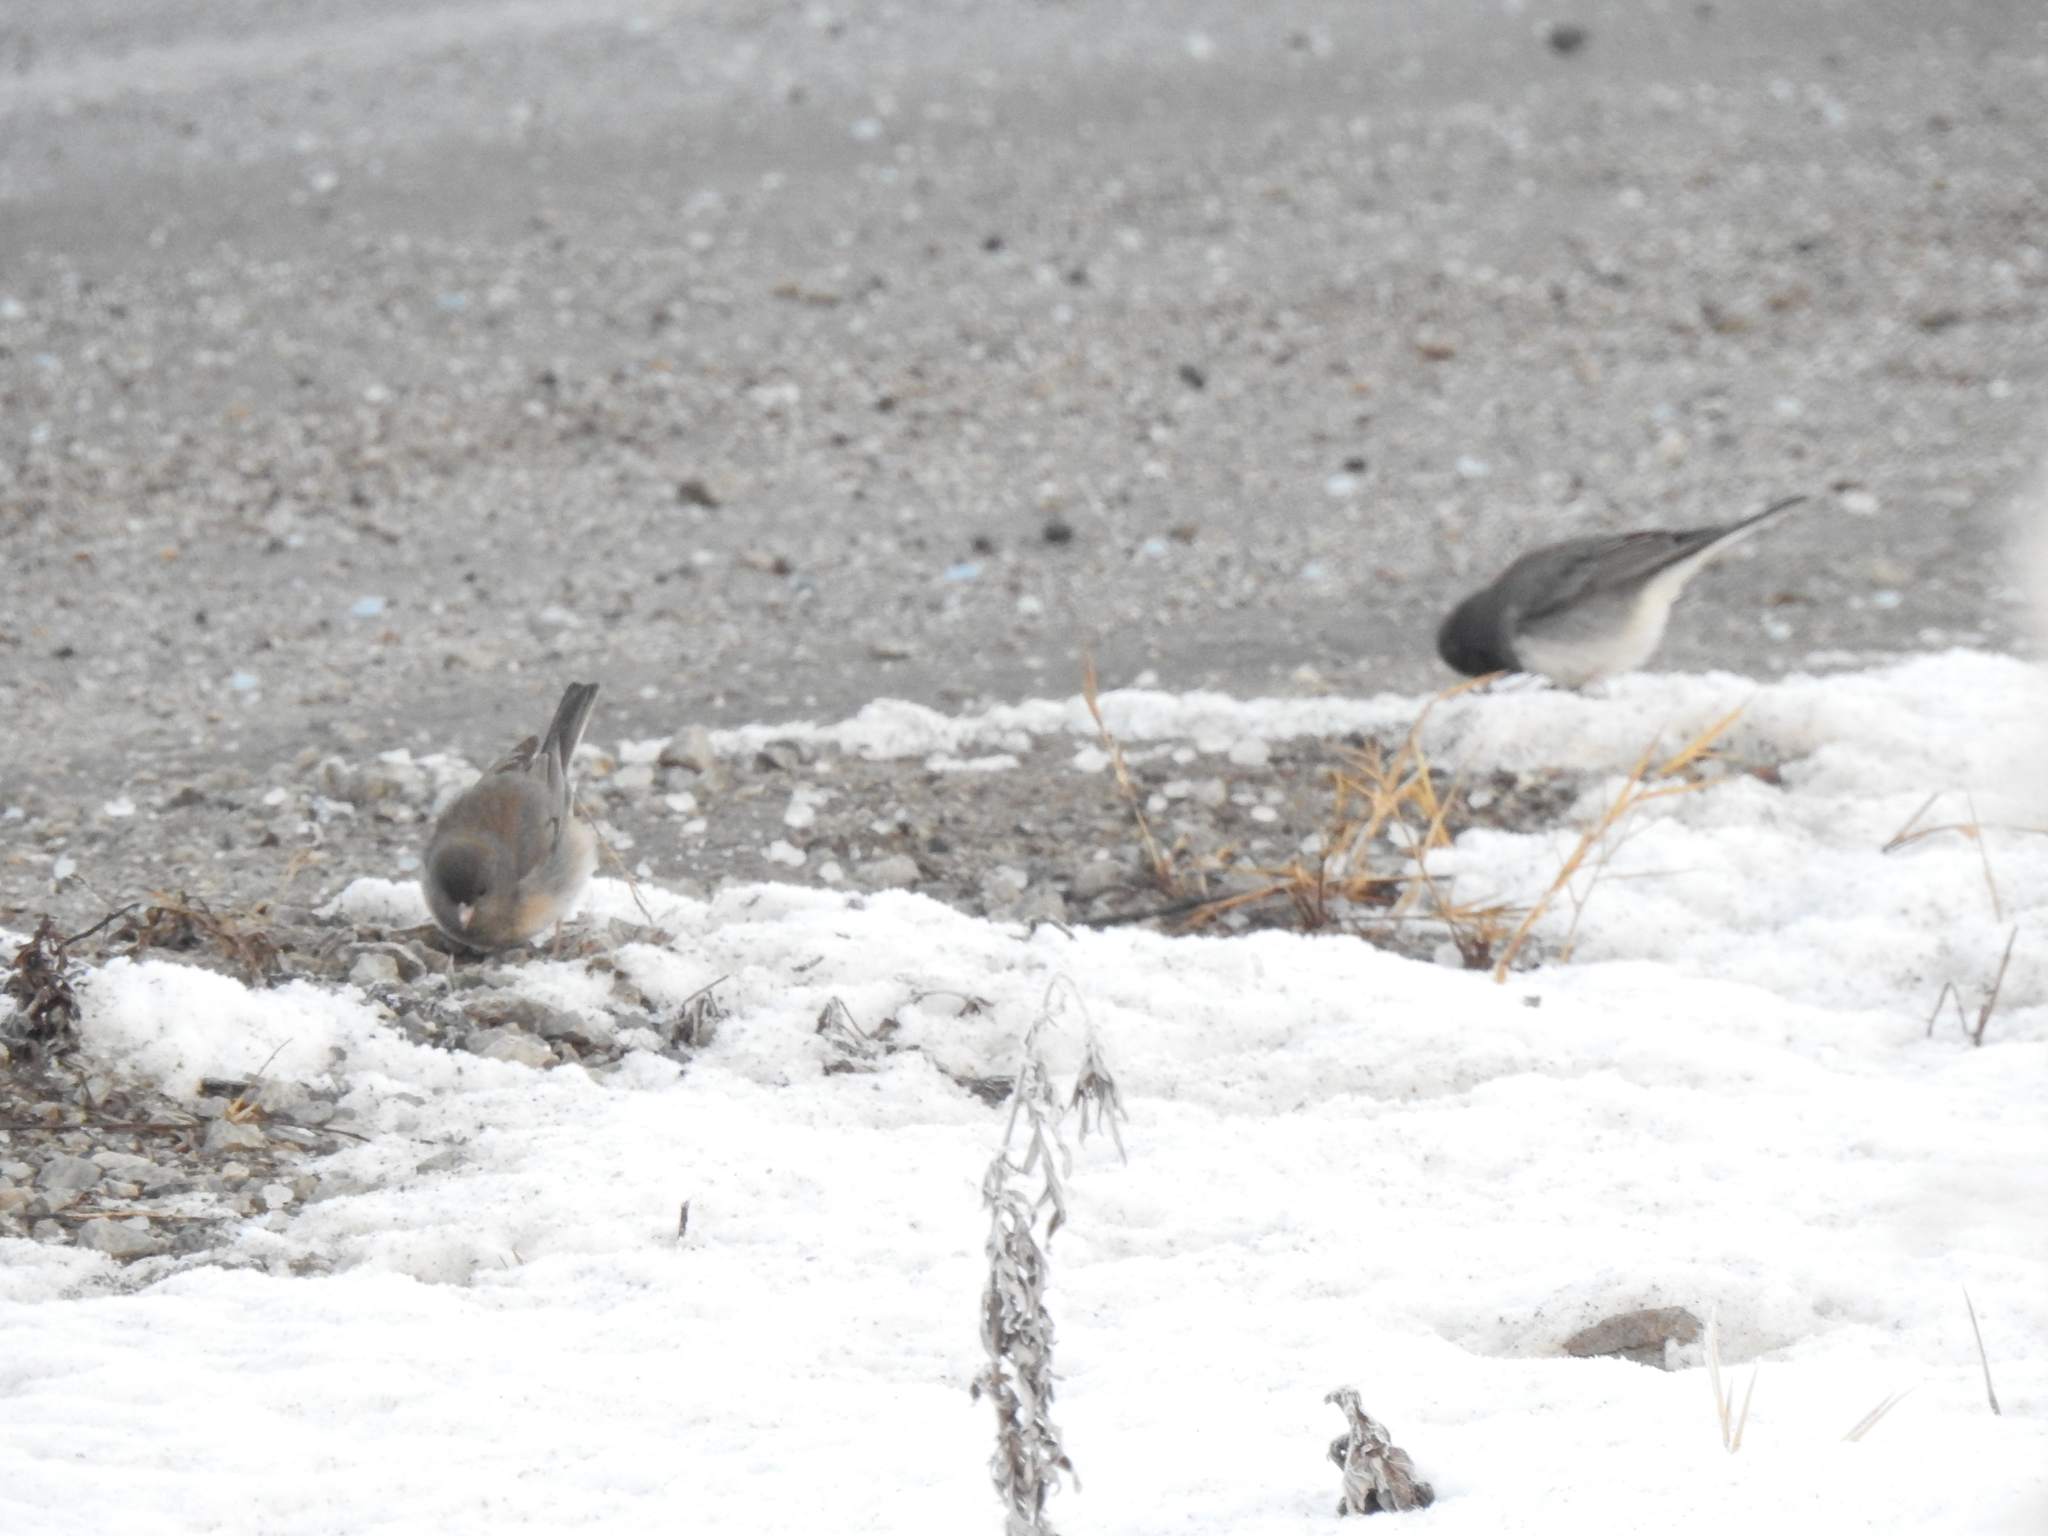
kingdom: Animalia
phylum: Chordata
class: Aves
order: Passeriformes
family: Passerellidae
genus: Junco
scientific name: Junco hyemalis
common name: Dark-eyed junco
